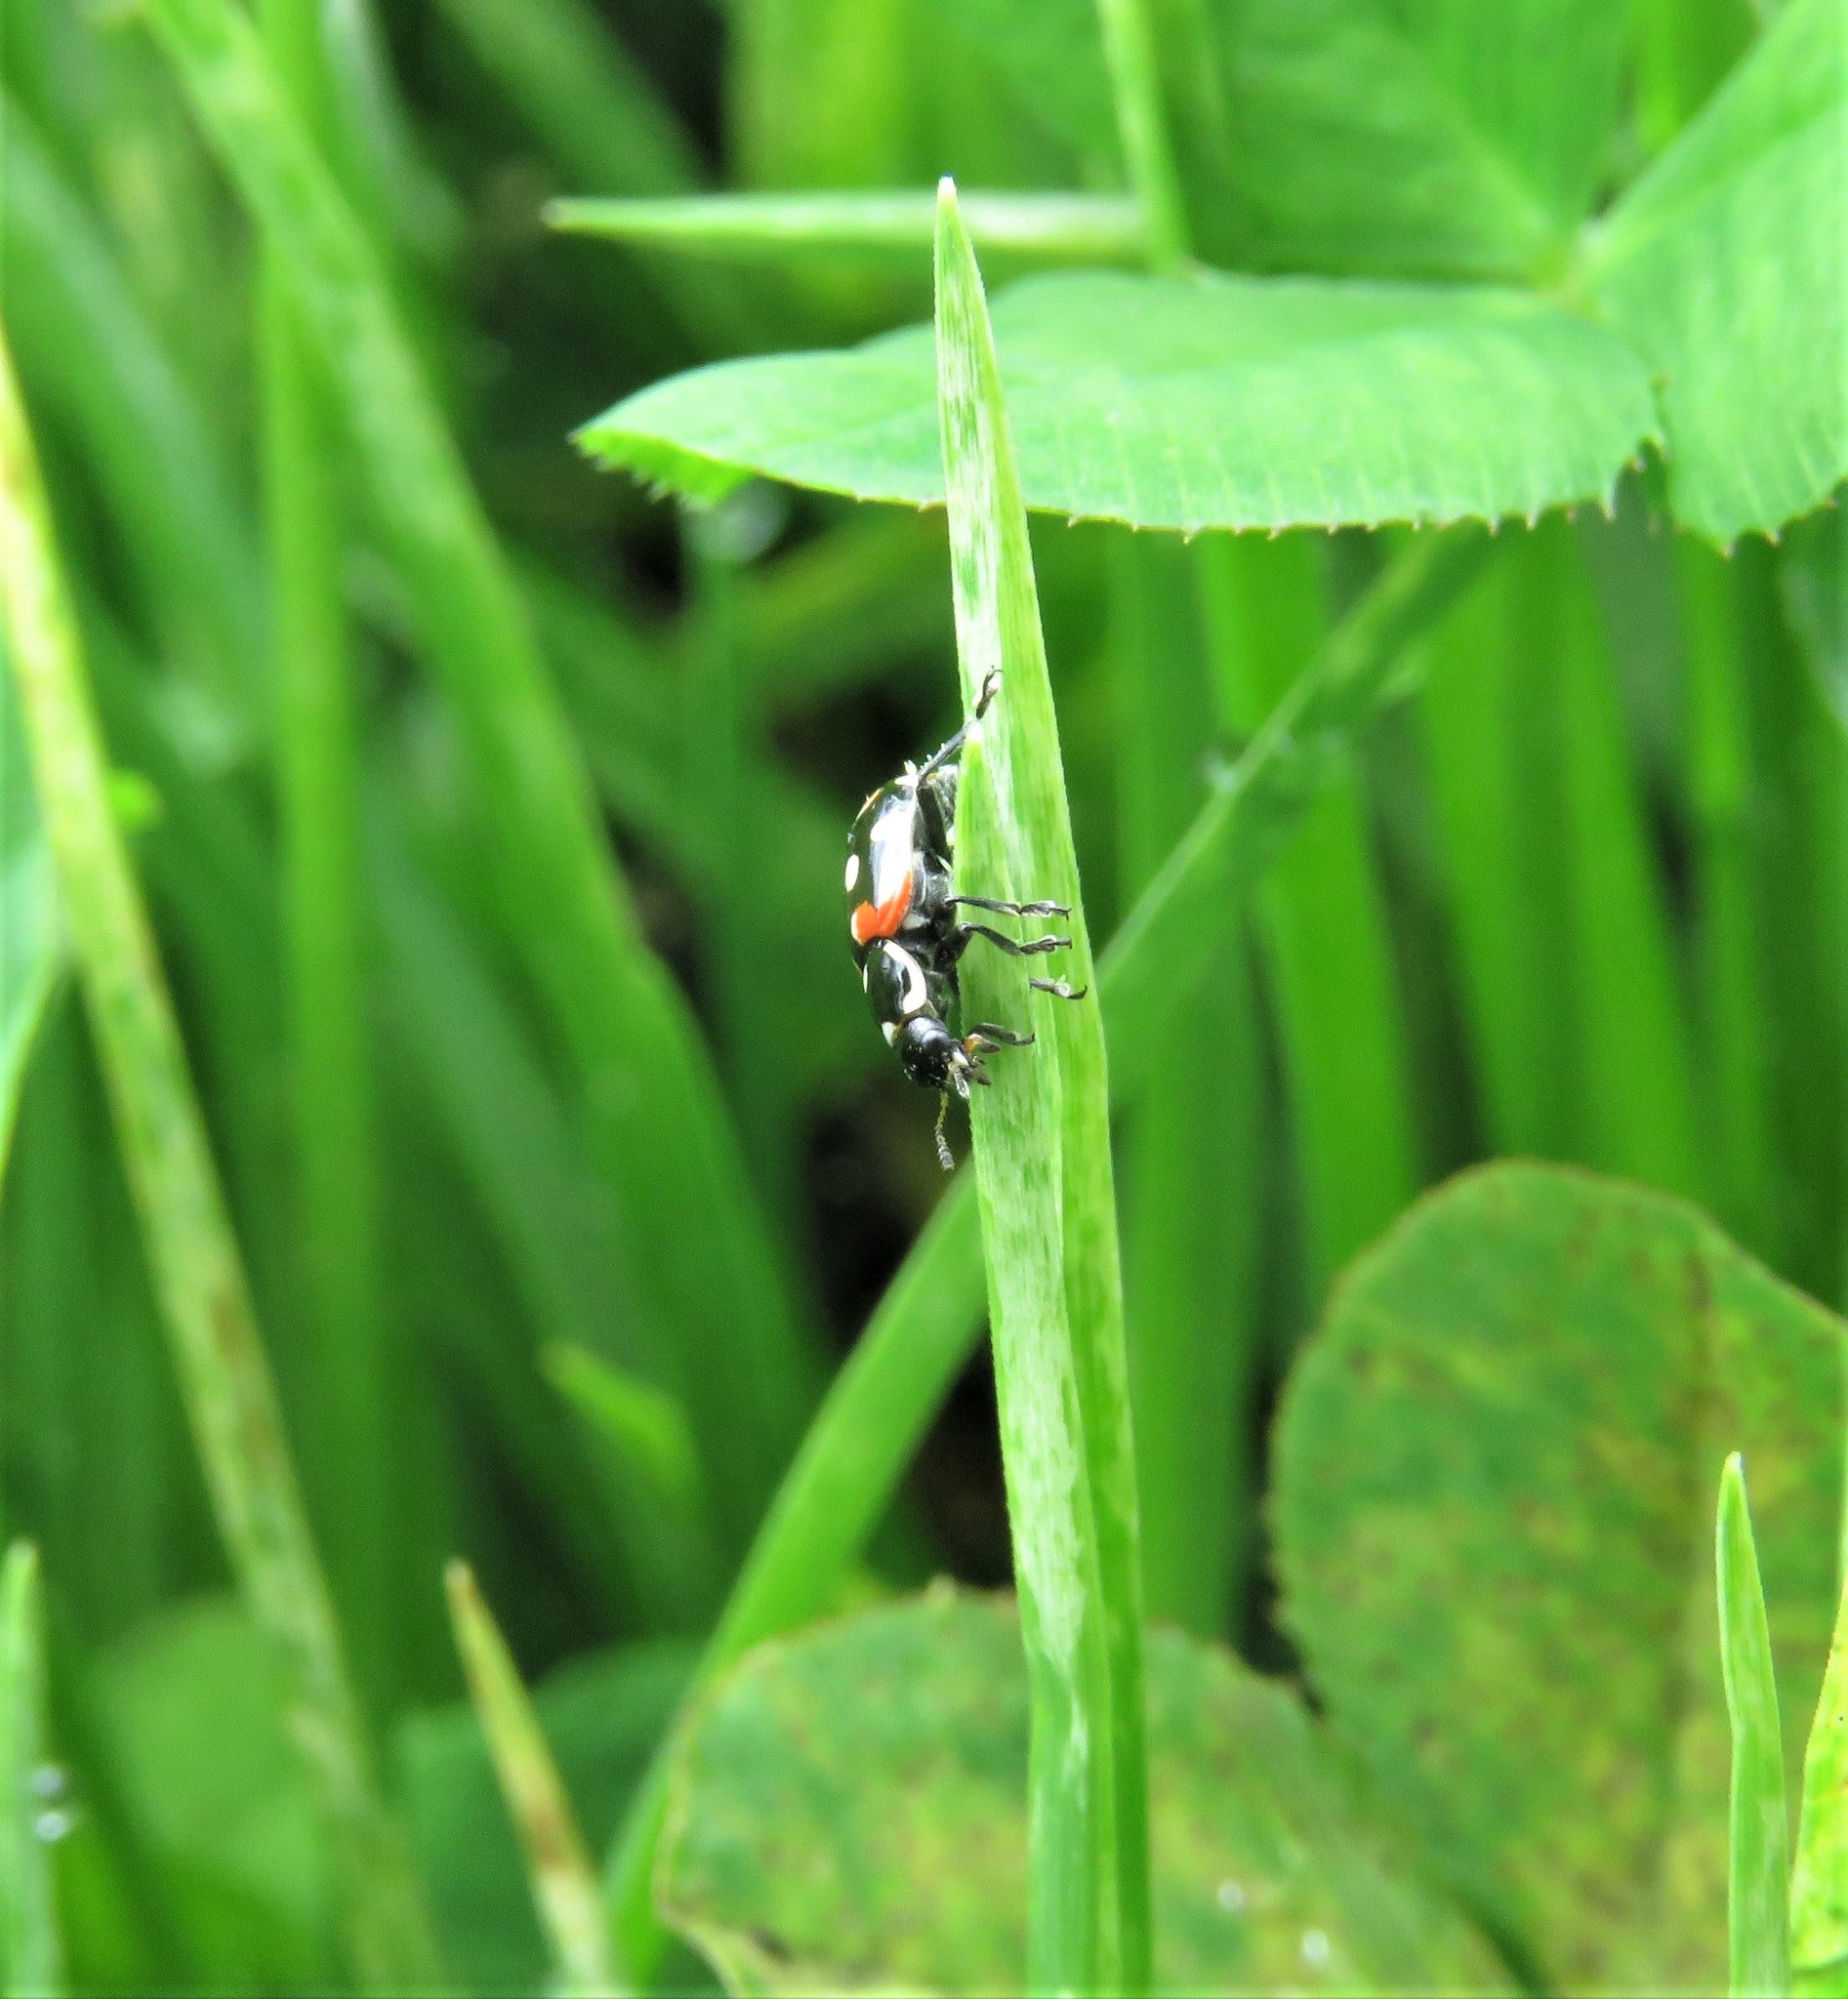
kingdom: Animalia
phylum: Arthropoda
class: Insecta
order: Coleoptera
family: Coccinellidae
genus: Eriopis
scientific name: Eriopis punicola
